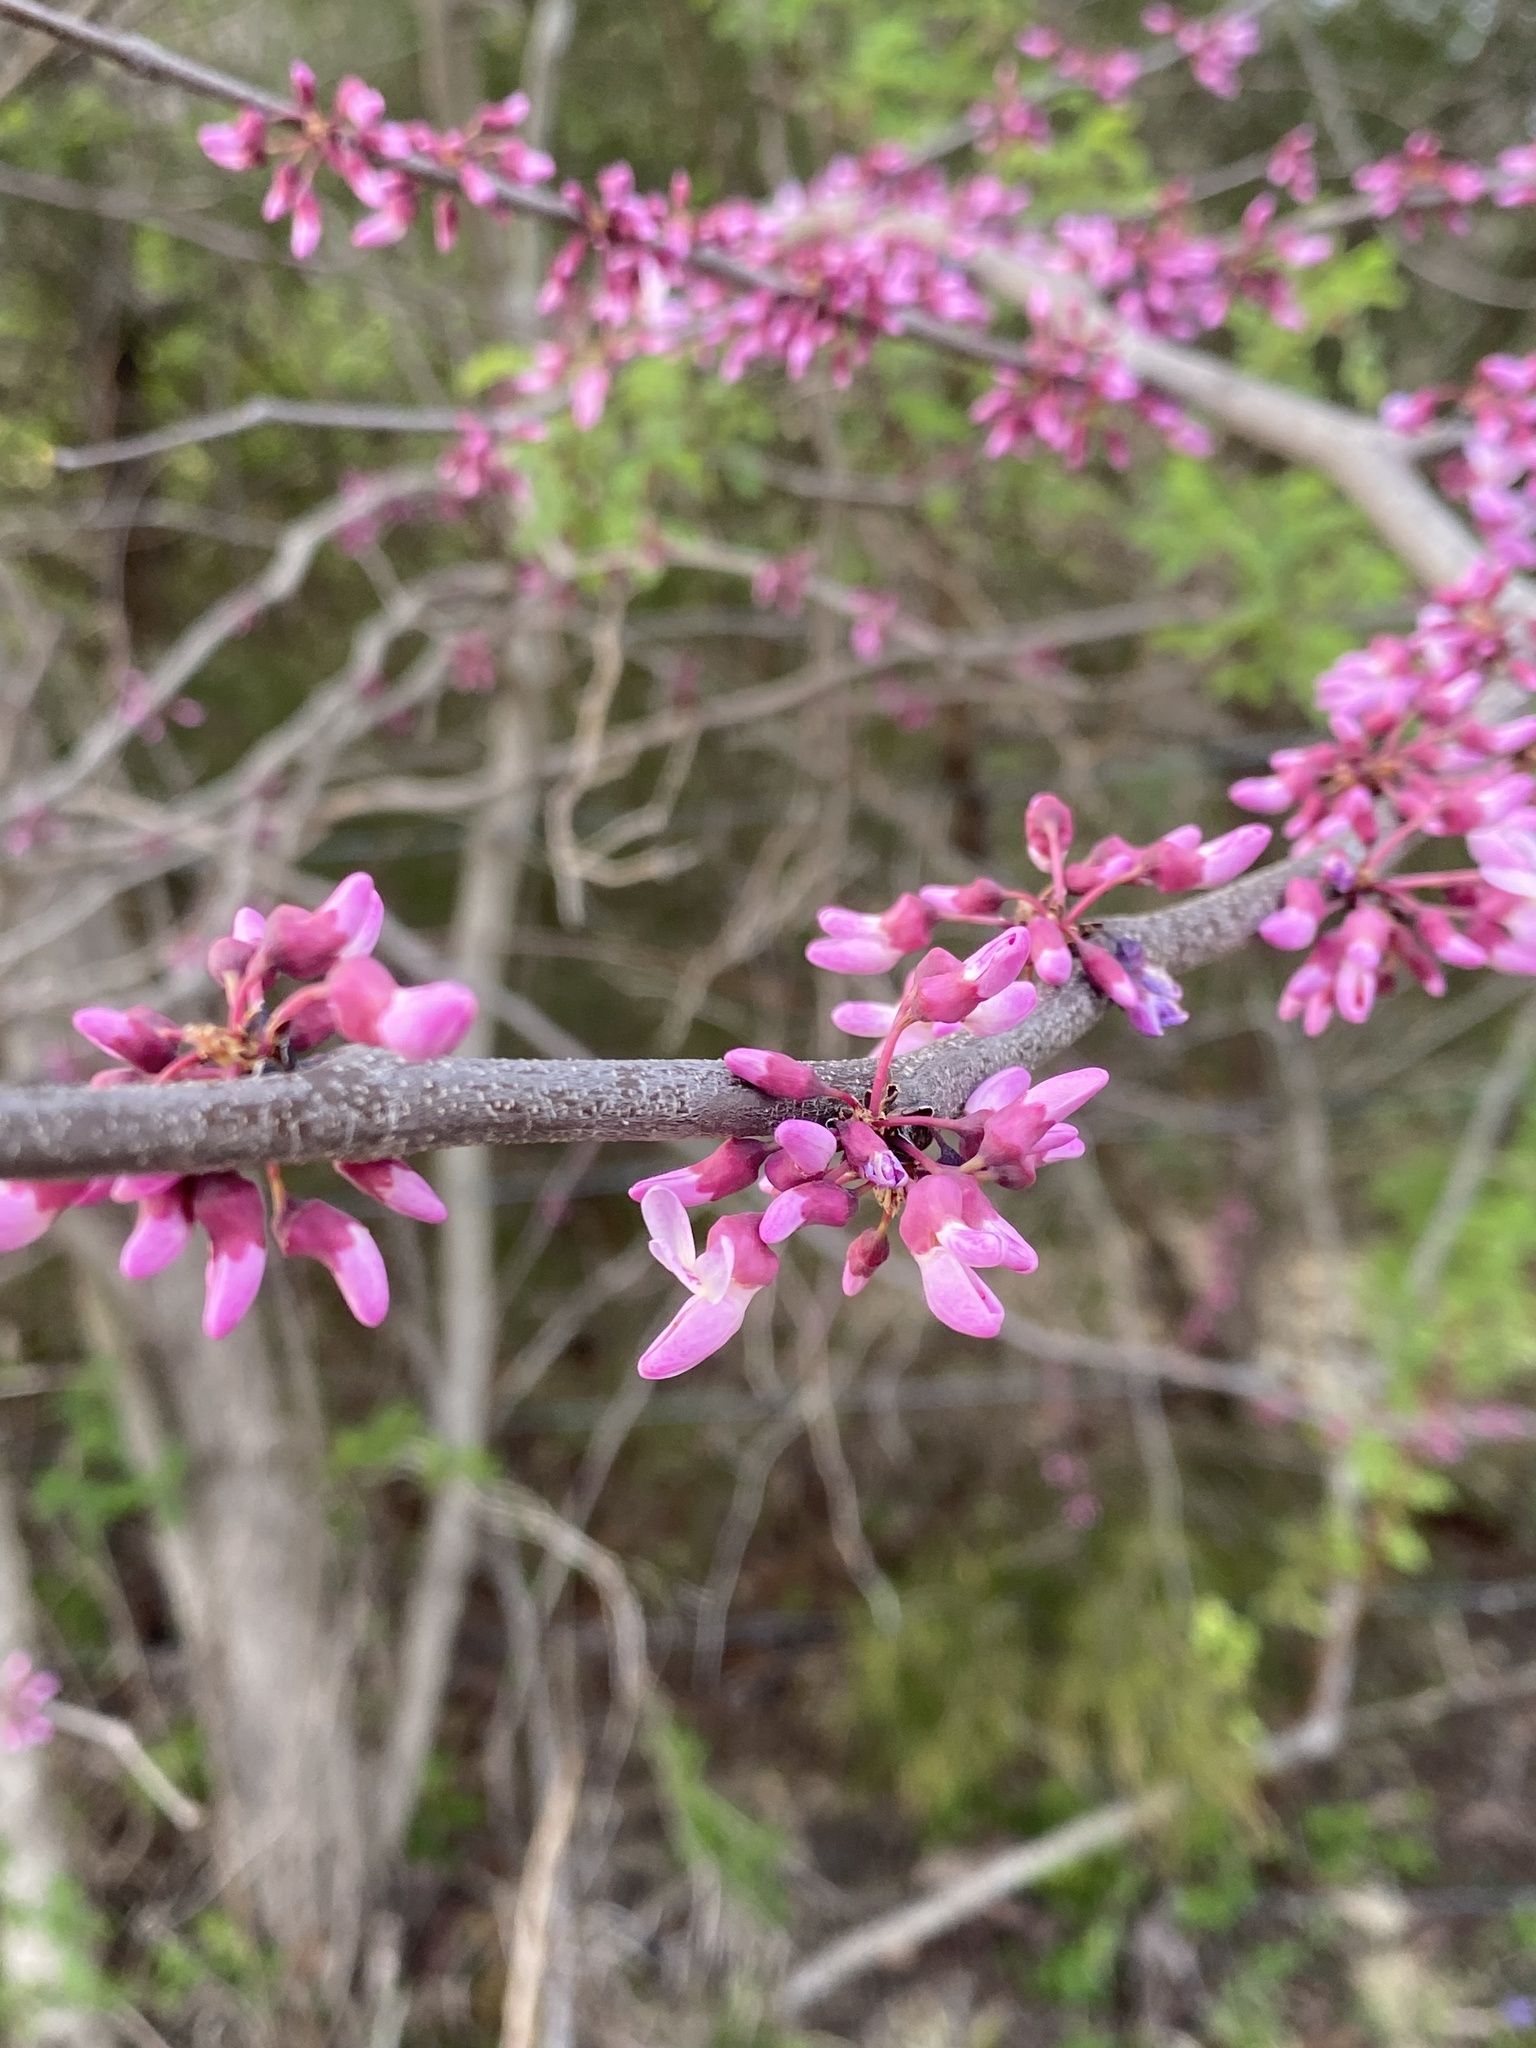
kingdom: Plantae
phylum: Tracheophyta
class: Magnoliopsida
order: Fabales
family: Fabaceae
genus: Cercis
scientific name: Cercis canadensis
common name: Eastern redbud
